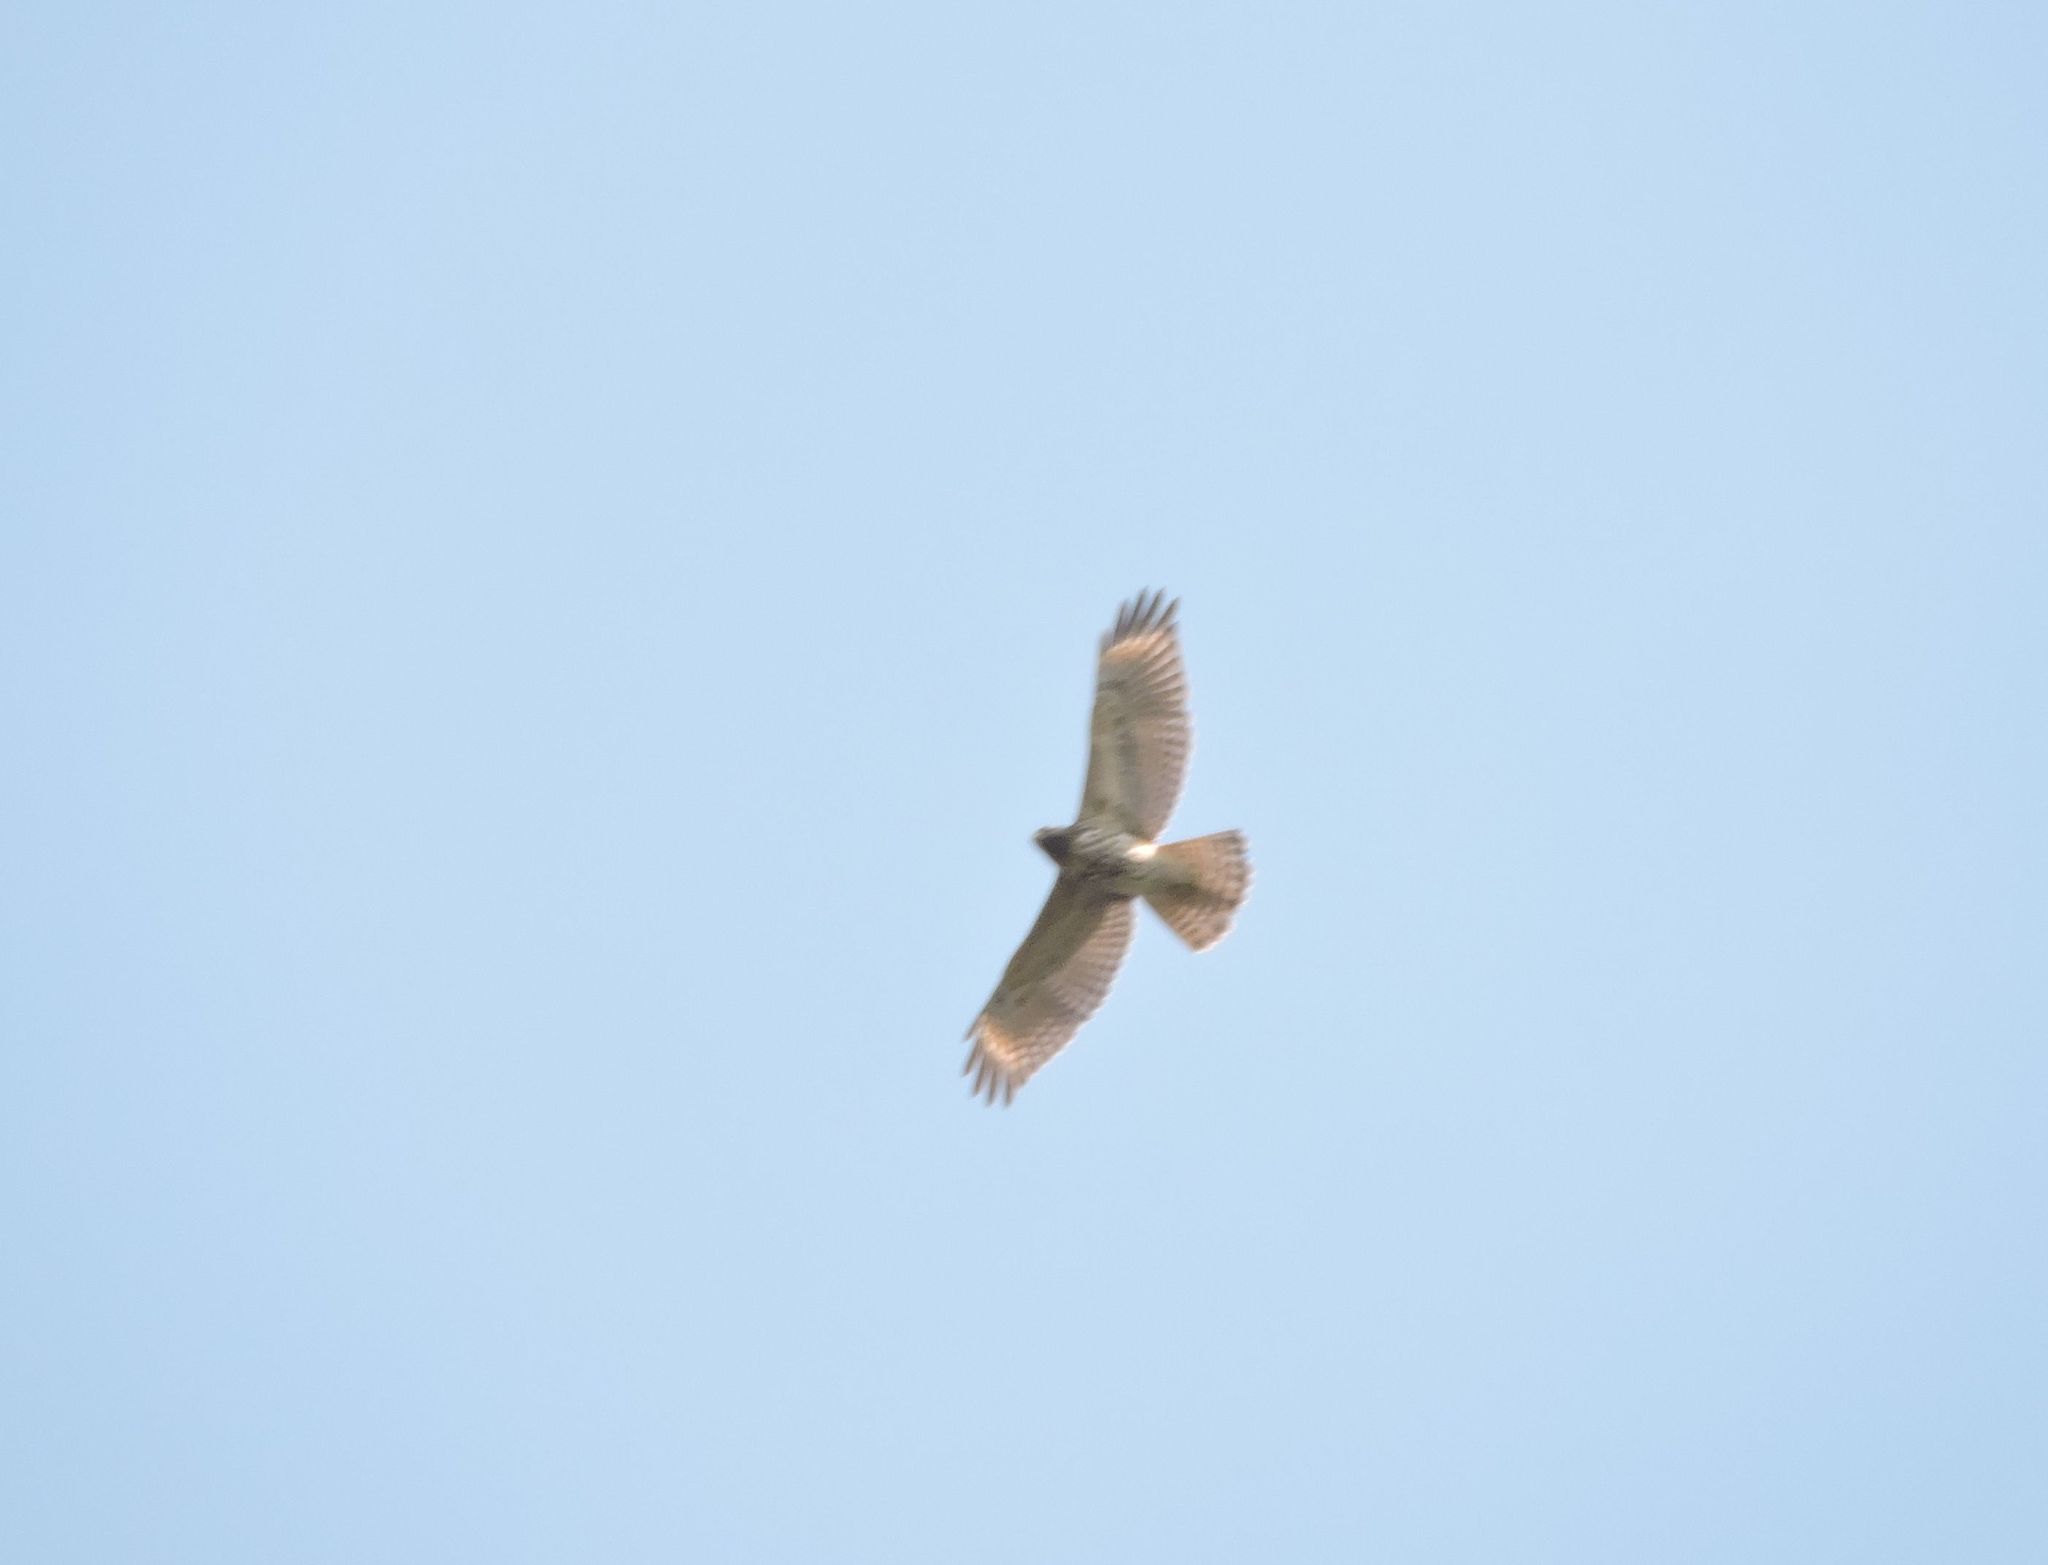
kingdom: Animalia
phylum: Chordata
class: Aves
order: Accipitriformes
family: Accipitridae
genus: Buteo
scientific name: Buteo lineatus
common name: Red-shouldered hawk
